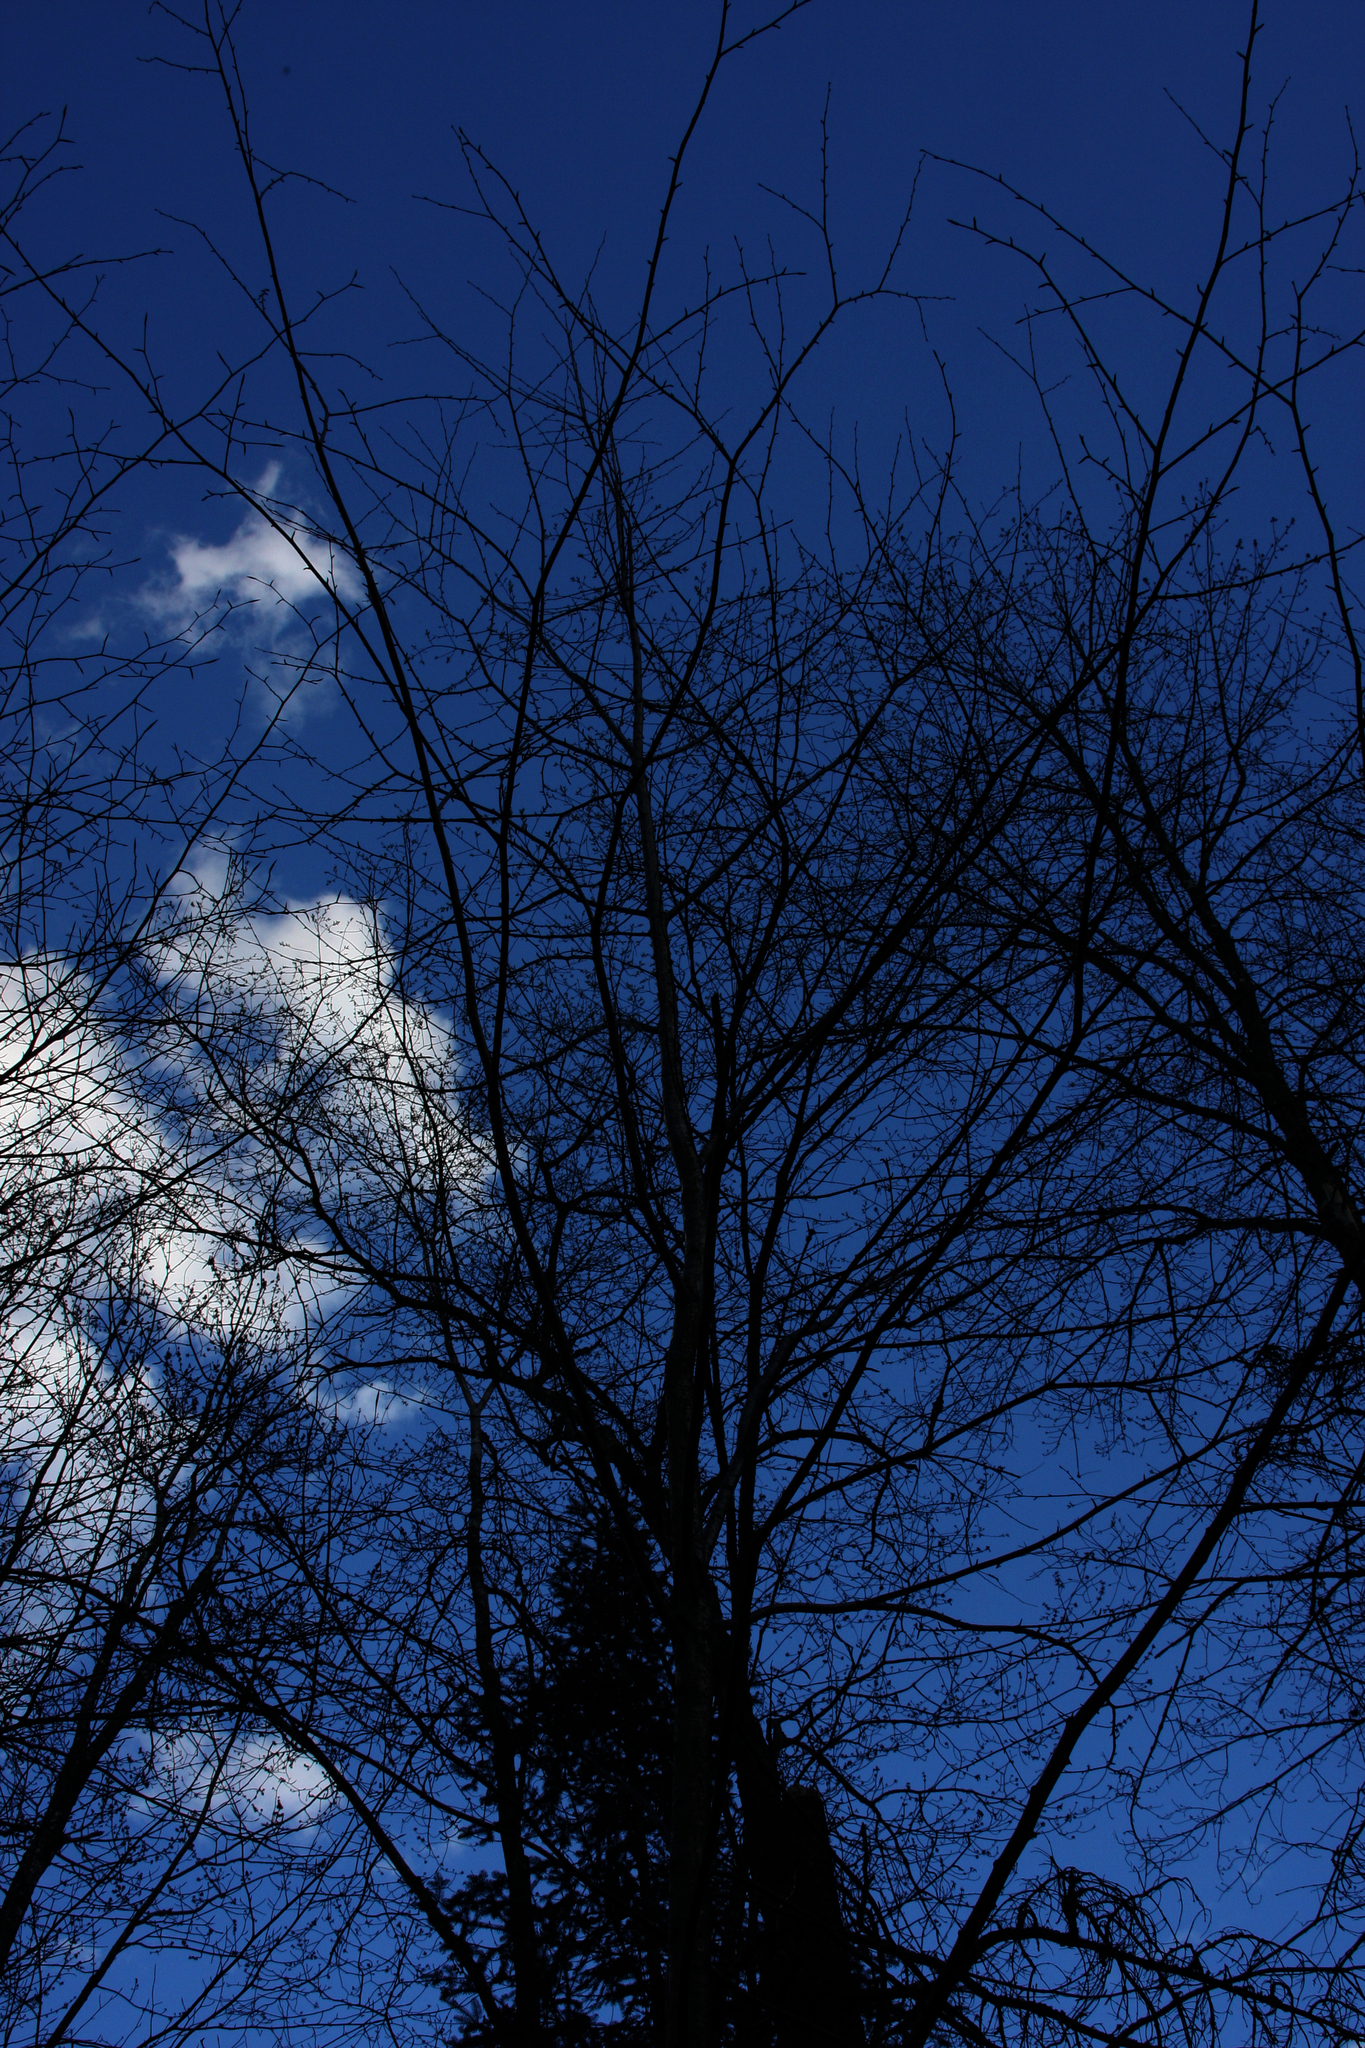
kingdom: Plantae
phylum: Tracheophyta
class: Magnoliopsida
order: Fagales
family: Betulaceae
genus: Betula
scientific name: Betula alleghaniensis
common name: Yellow birch
